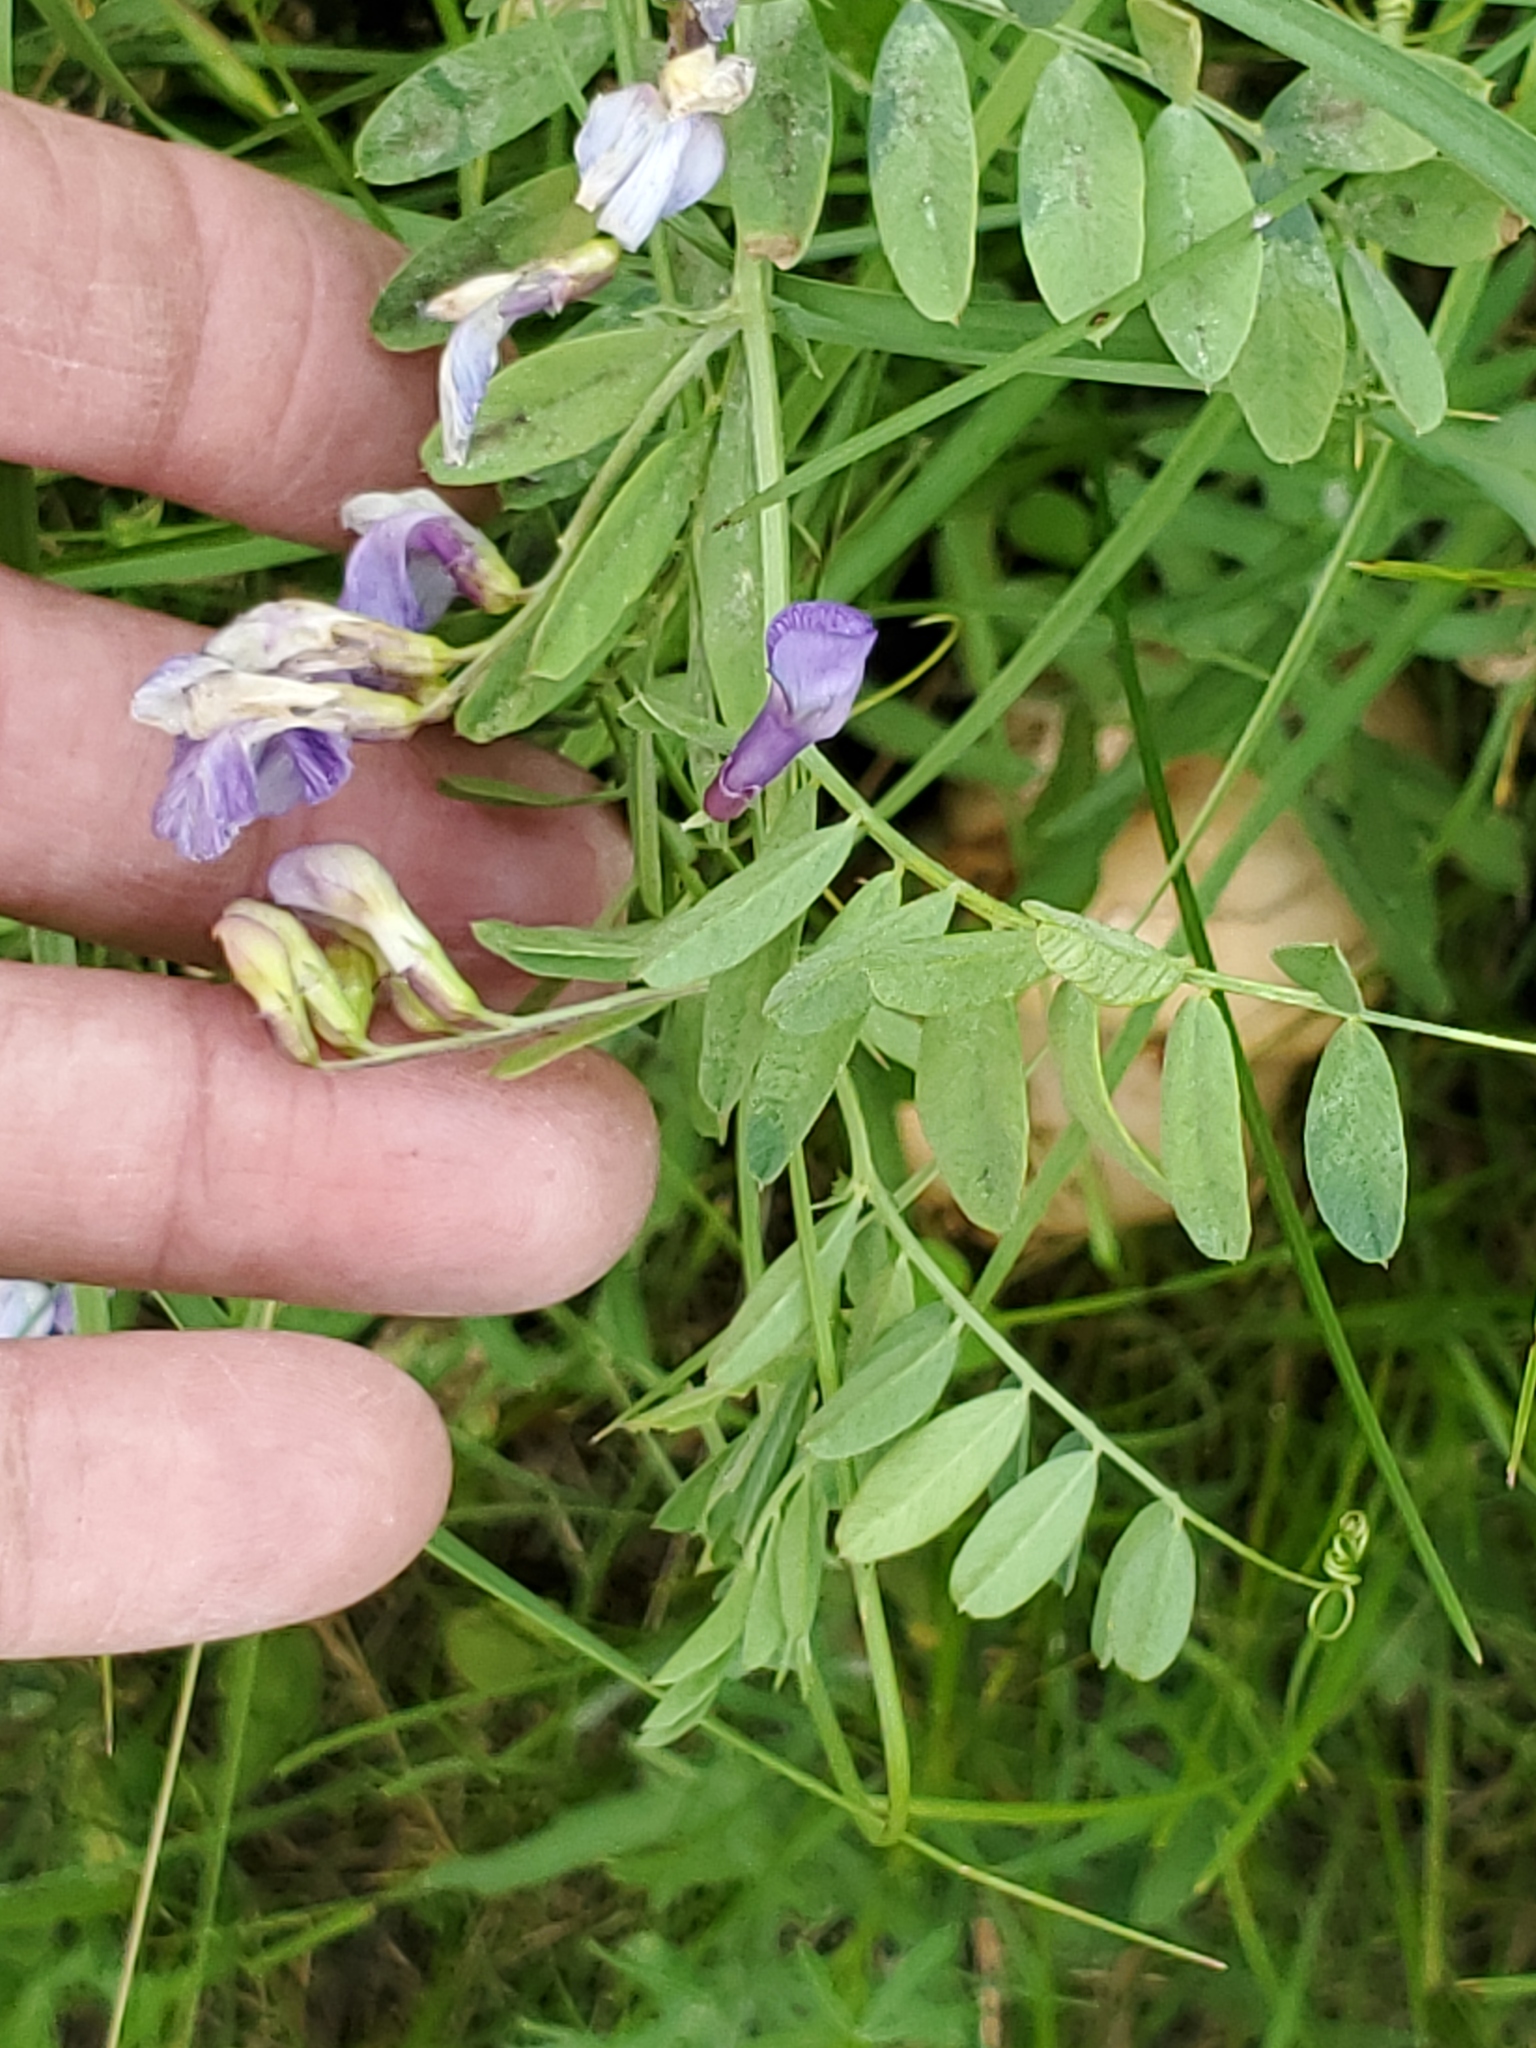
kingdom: Plantae
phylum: Tracheophyta
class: Magnoliopsida
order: Fabales
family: Fabaceae
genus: Vicia
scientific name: Vicia americana
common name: American vetch
